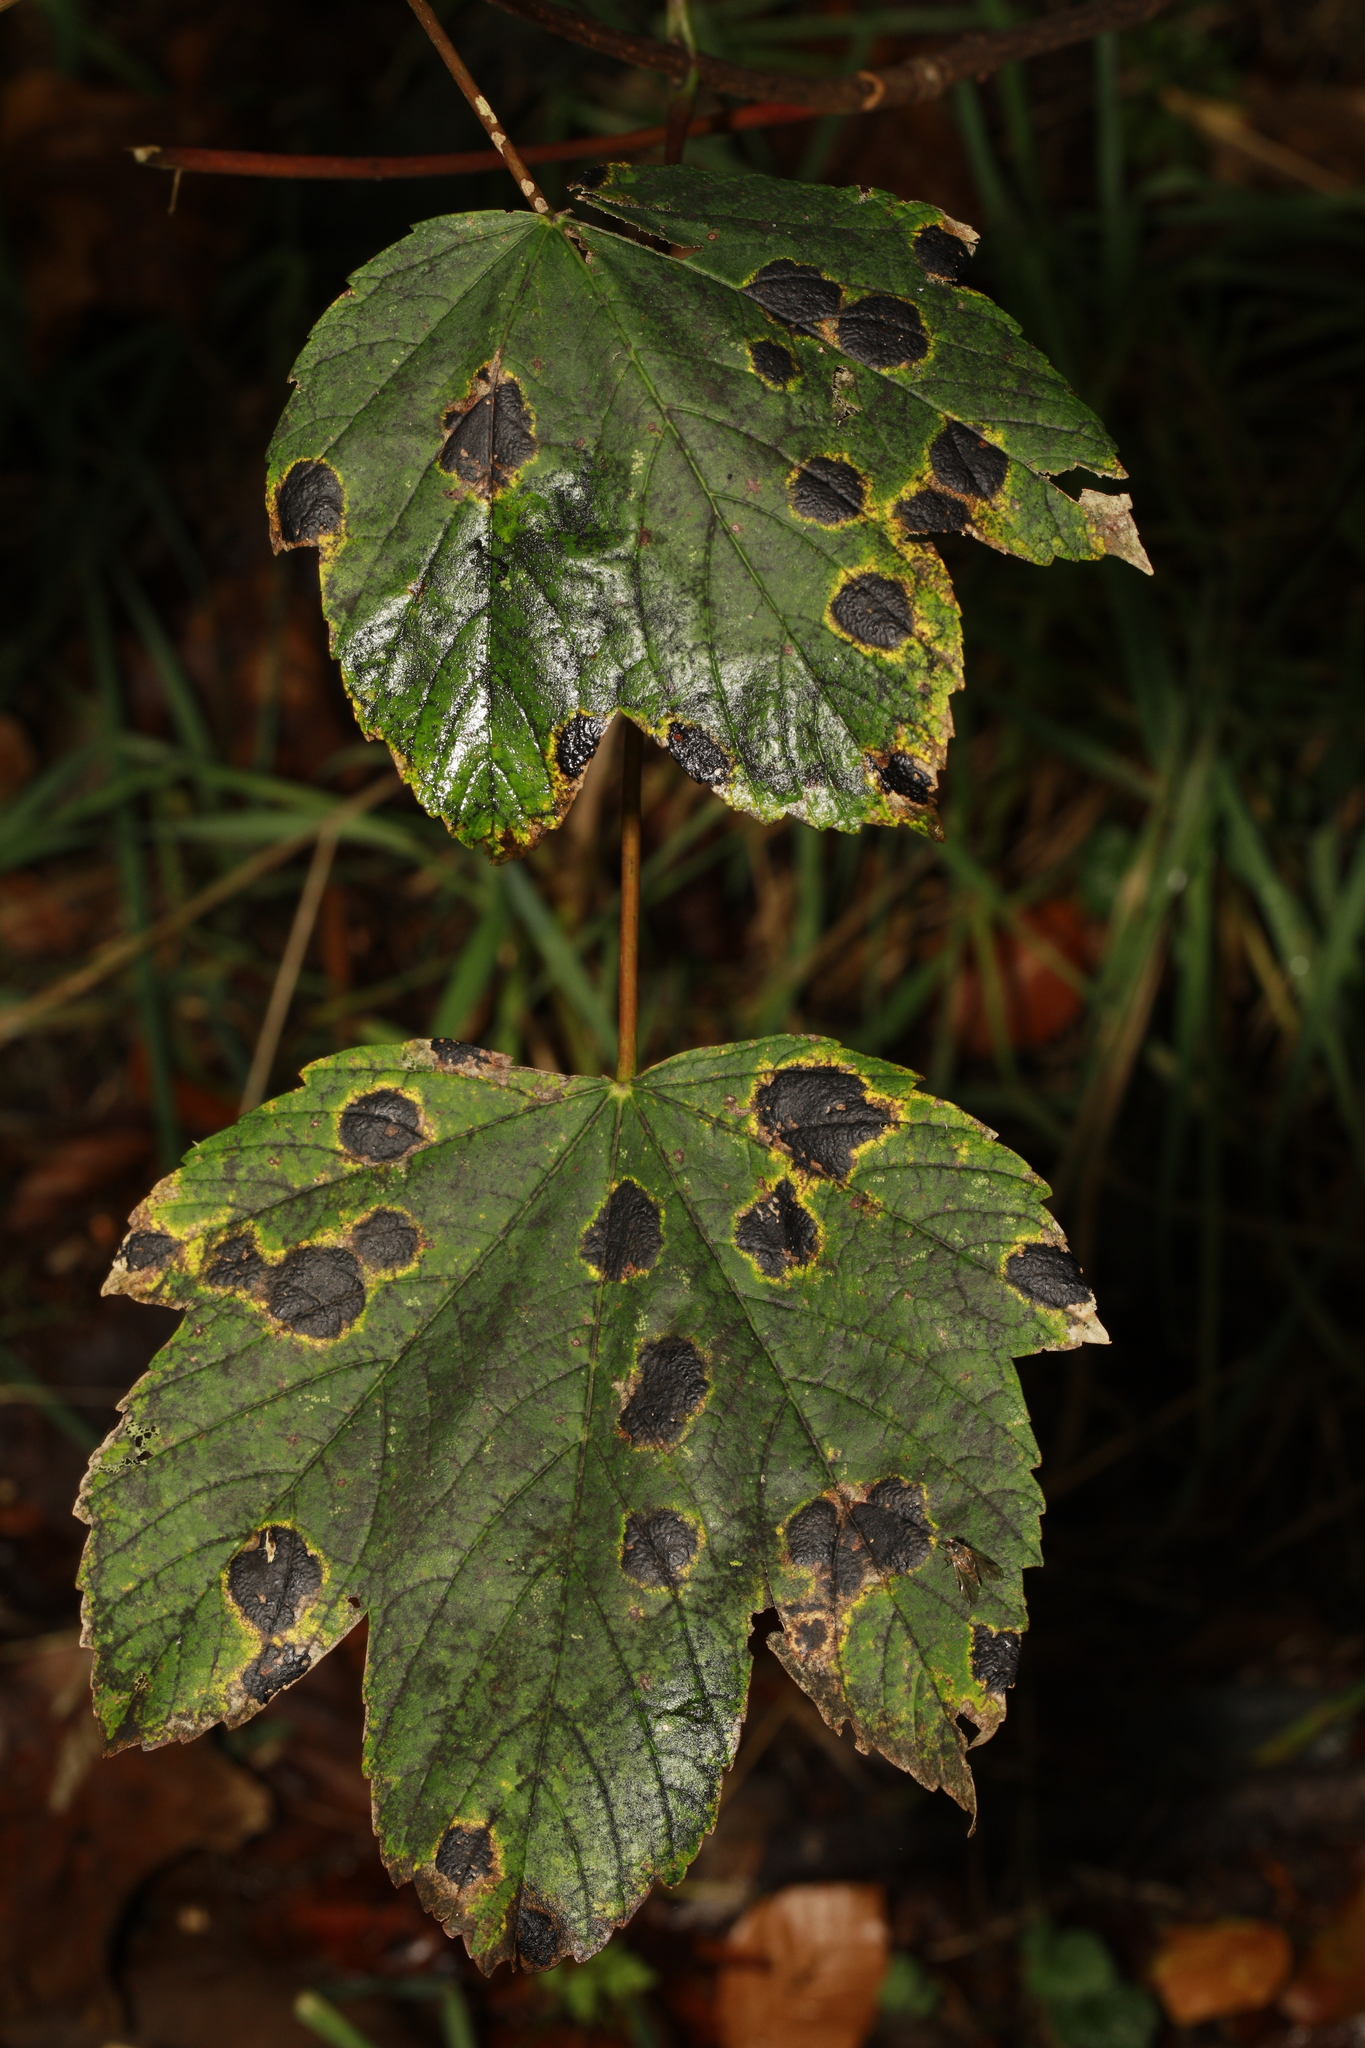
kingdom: Plantae
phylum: Tracheophyta
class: Magnoliopsida
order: Sapindales
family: Sapindaceae
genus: Acer
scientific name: Acer pseudoplatanus
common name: Sycamore
